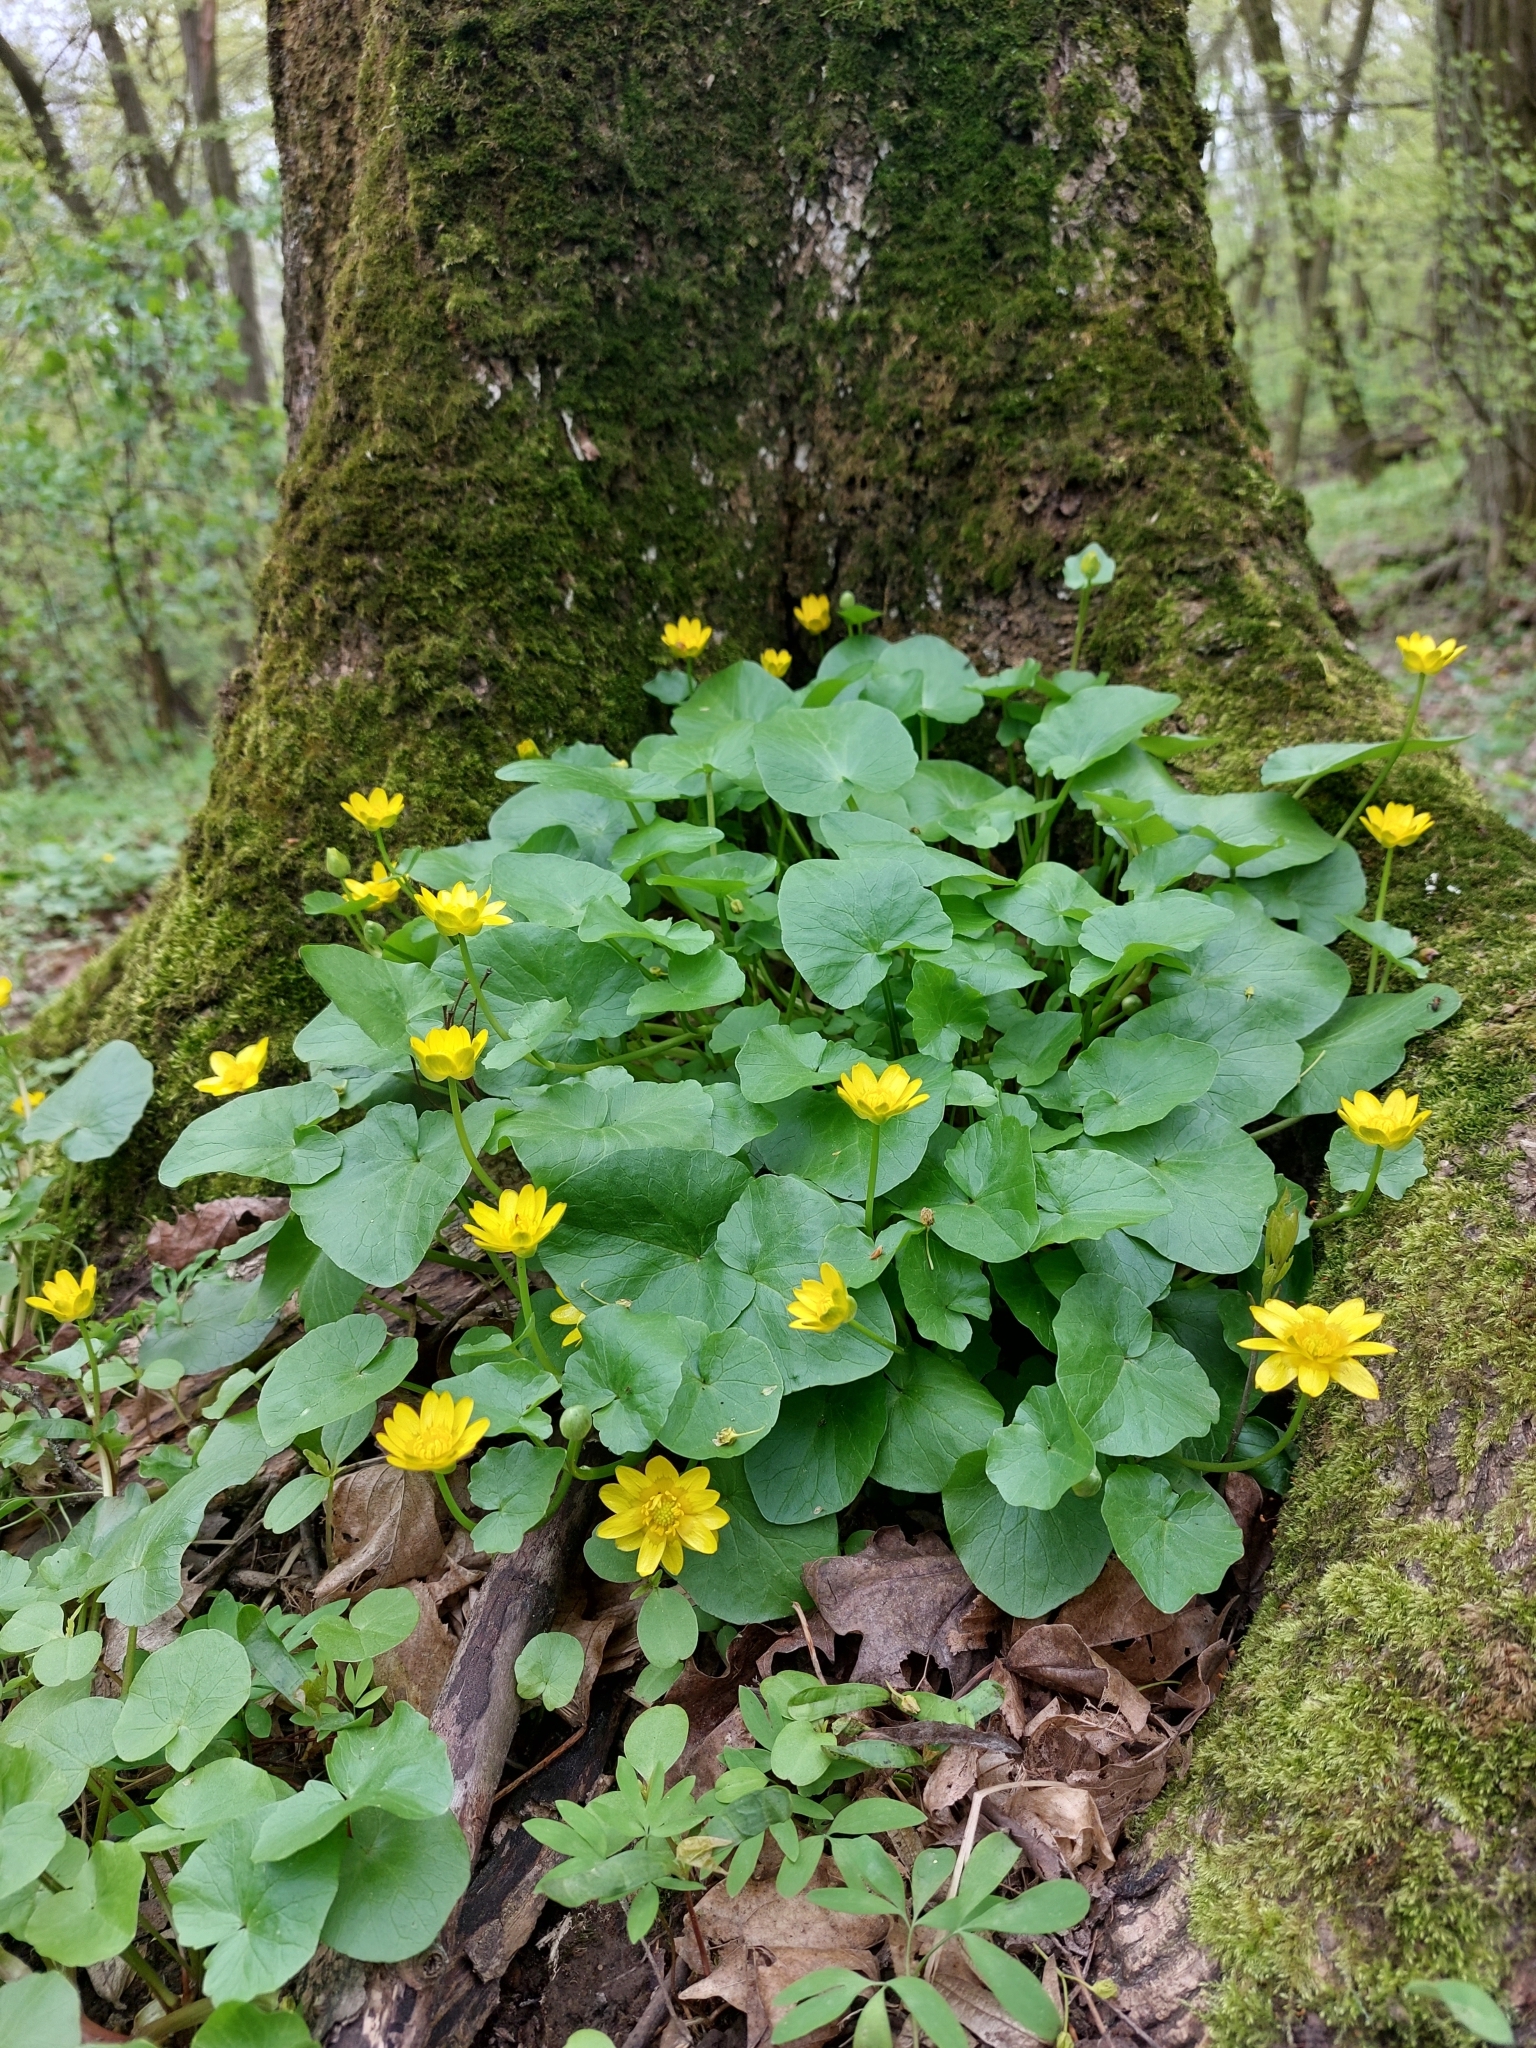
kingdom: Plantae
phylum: Tracheophyta
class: Magnoliopsida
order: Ranunculales
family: Ranunculaceae
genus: Ficaria
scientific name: Ficaria verna
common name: Lesser celandine
